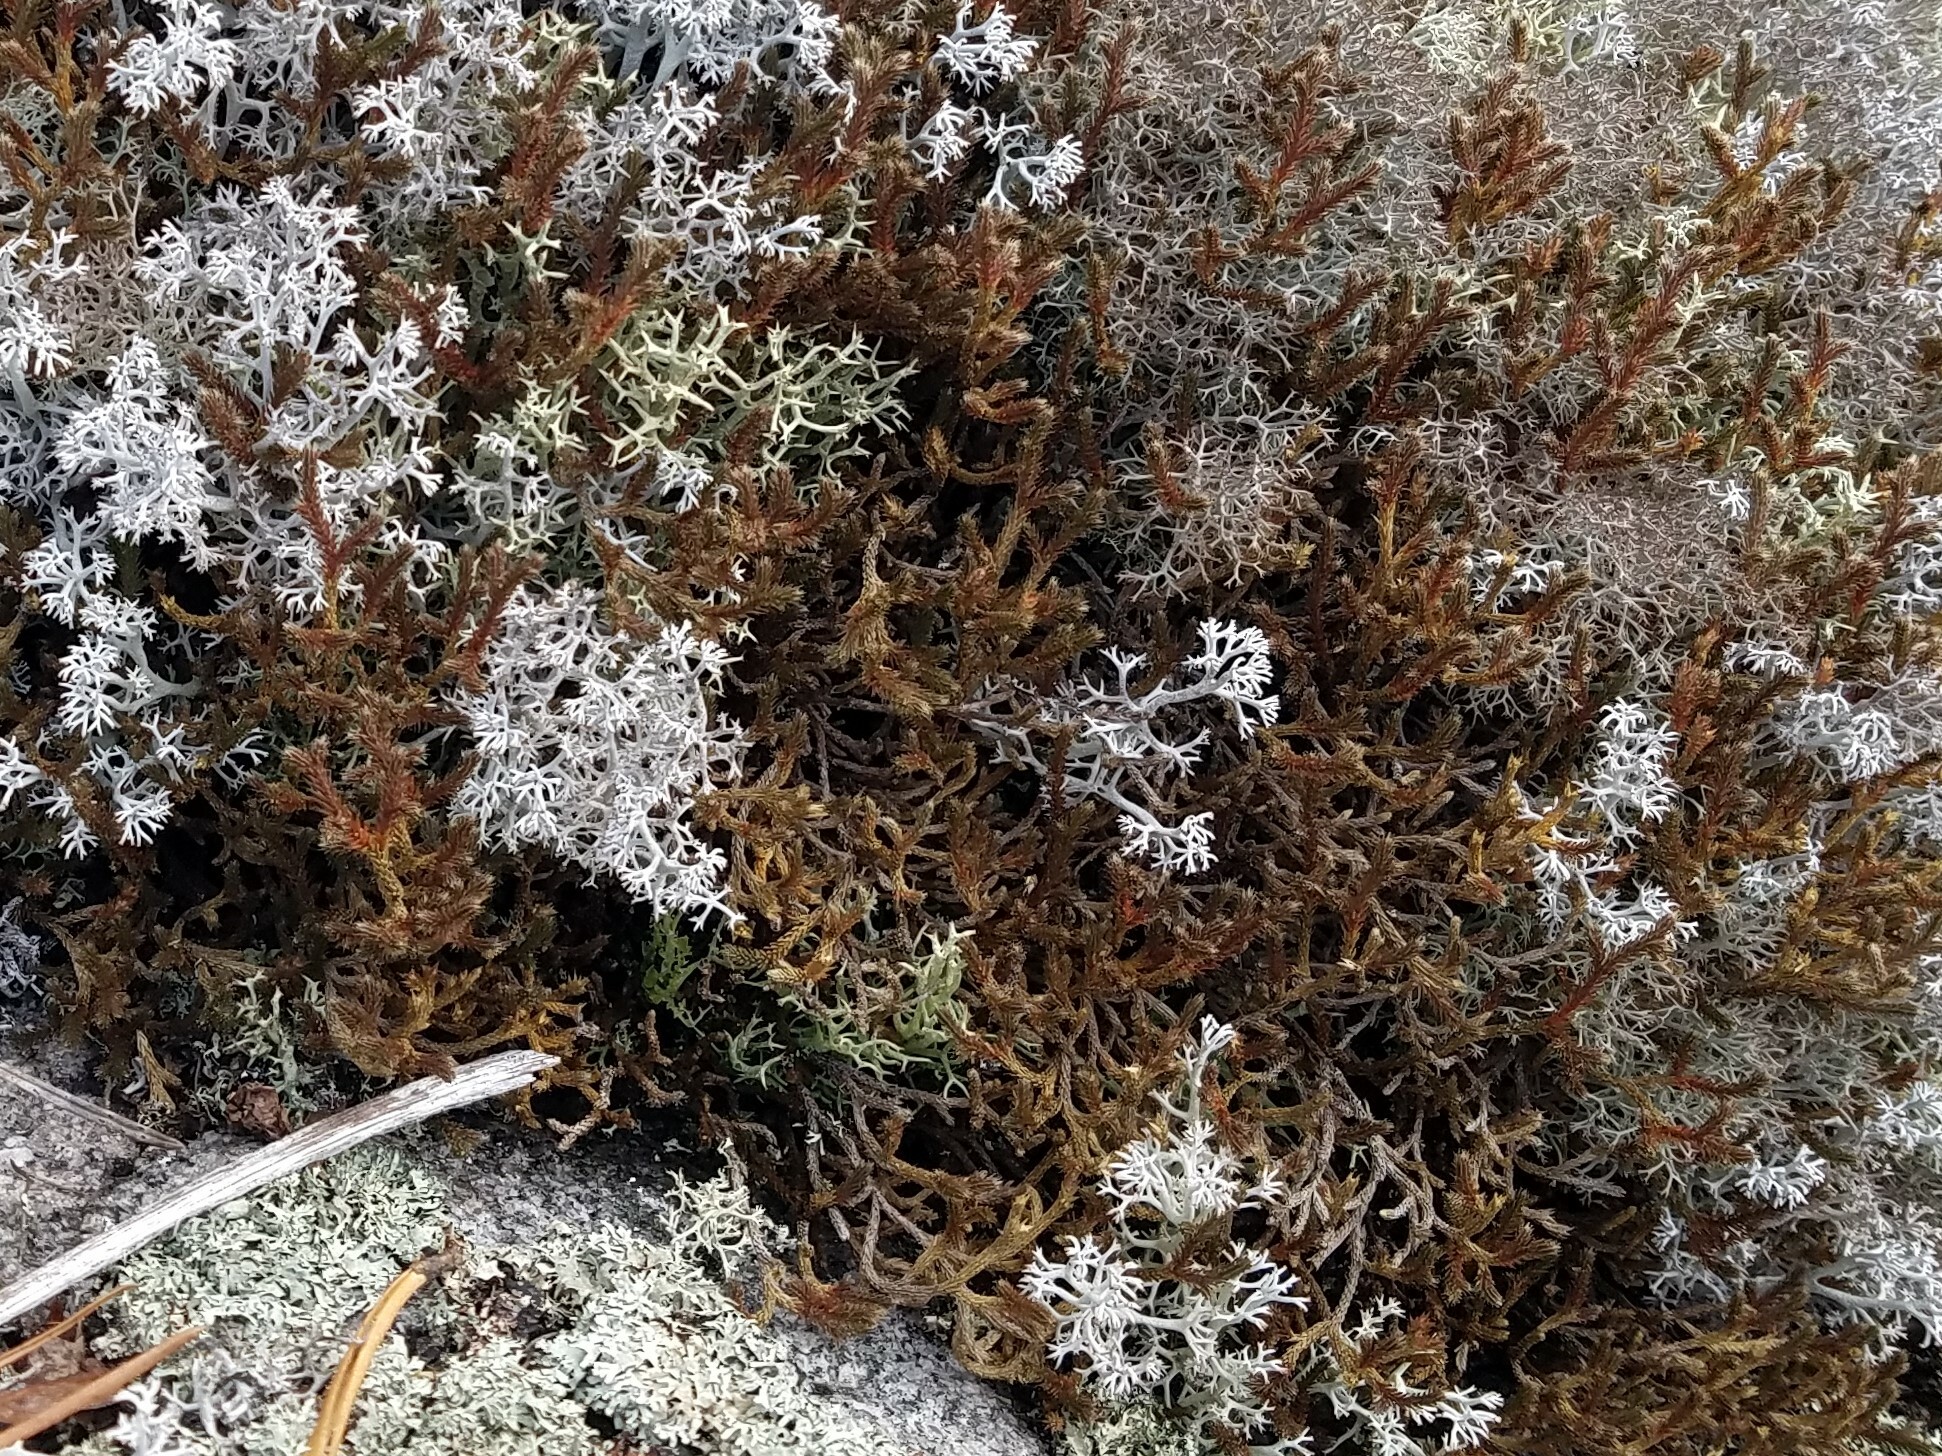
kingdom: Plantae
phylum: Tracheophyta
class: Lycopodiopsida
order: Selaginellales
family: Selaginellaceae
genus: Selaginella
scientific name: Selaginella tortipila
